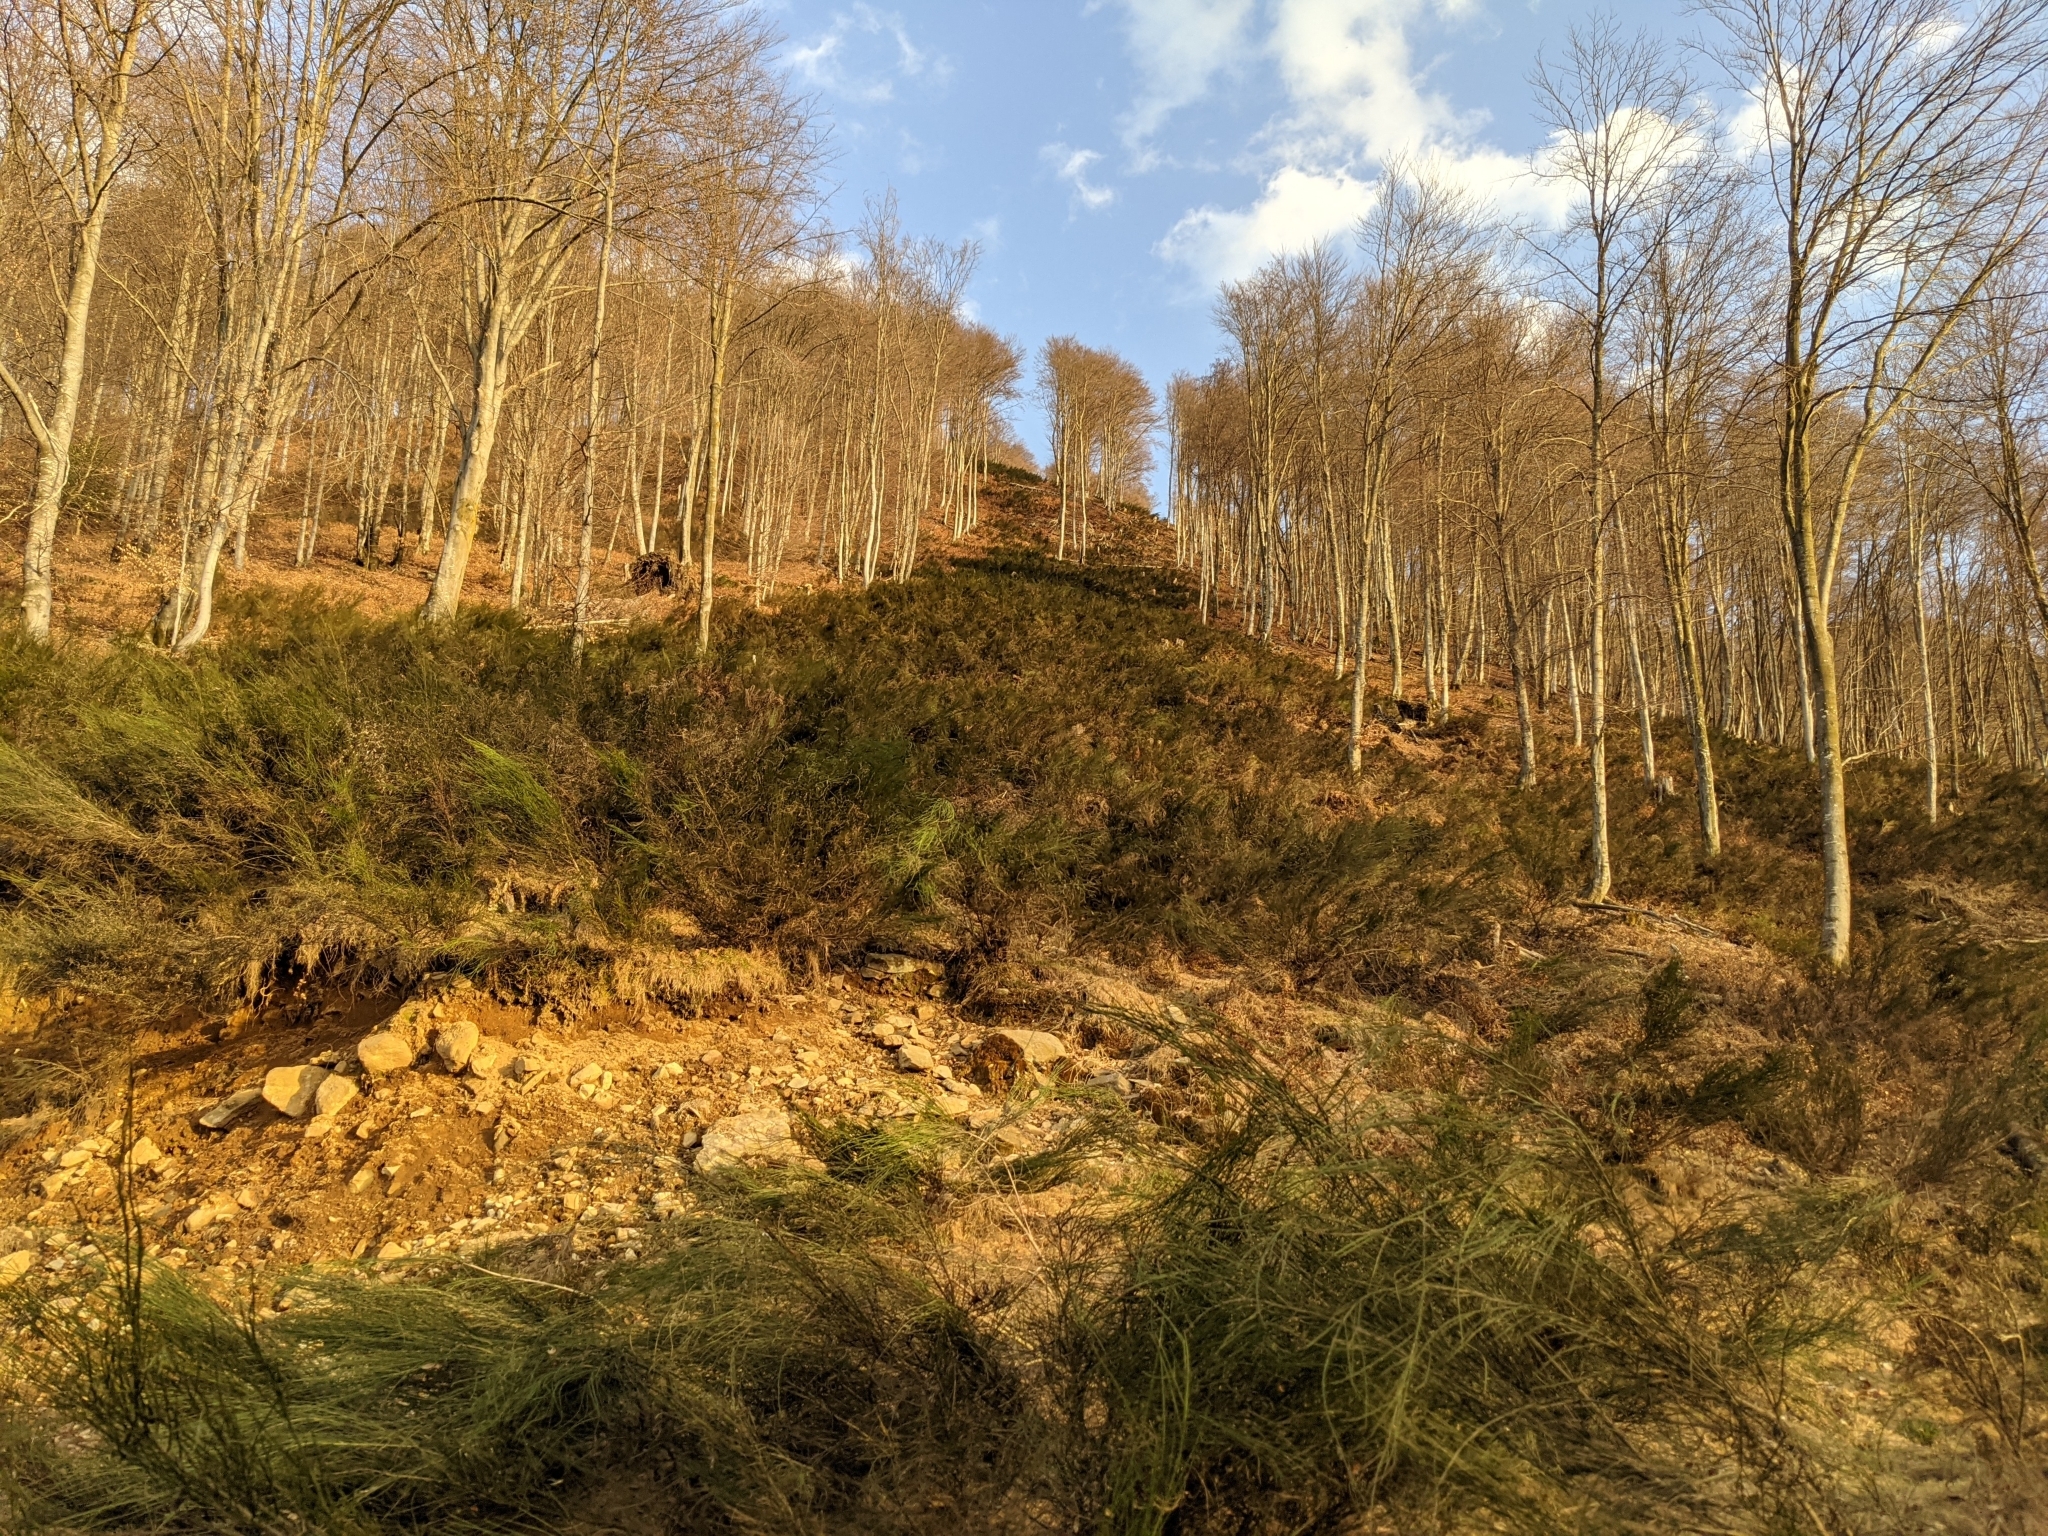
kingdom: Plantae
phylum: Tracheophyta
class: Magnoliopsida
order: Fabales
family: Fabaceae
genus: Cytisus
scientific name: Cytisus scoparius
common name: Scotch broom
